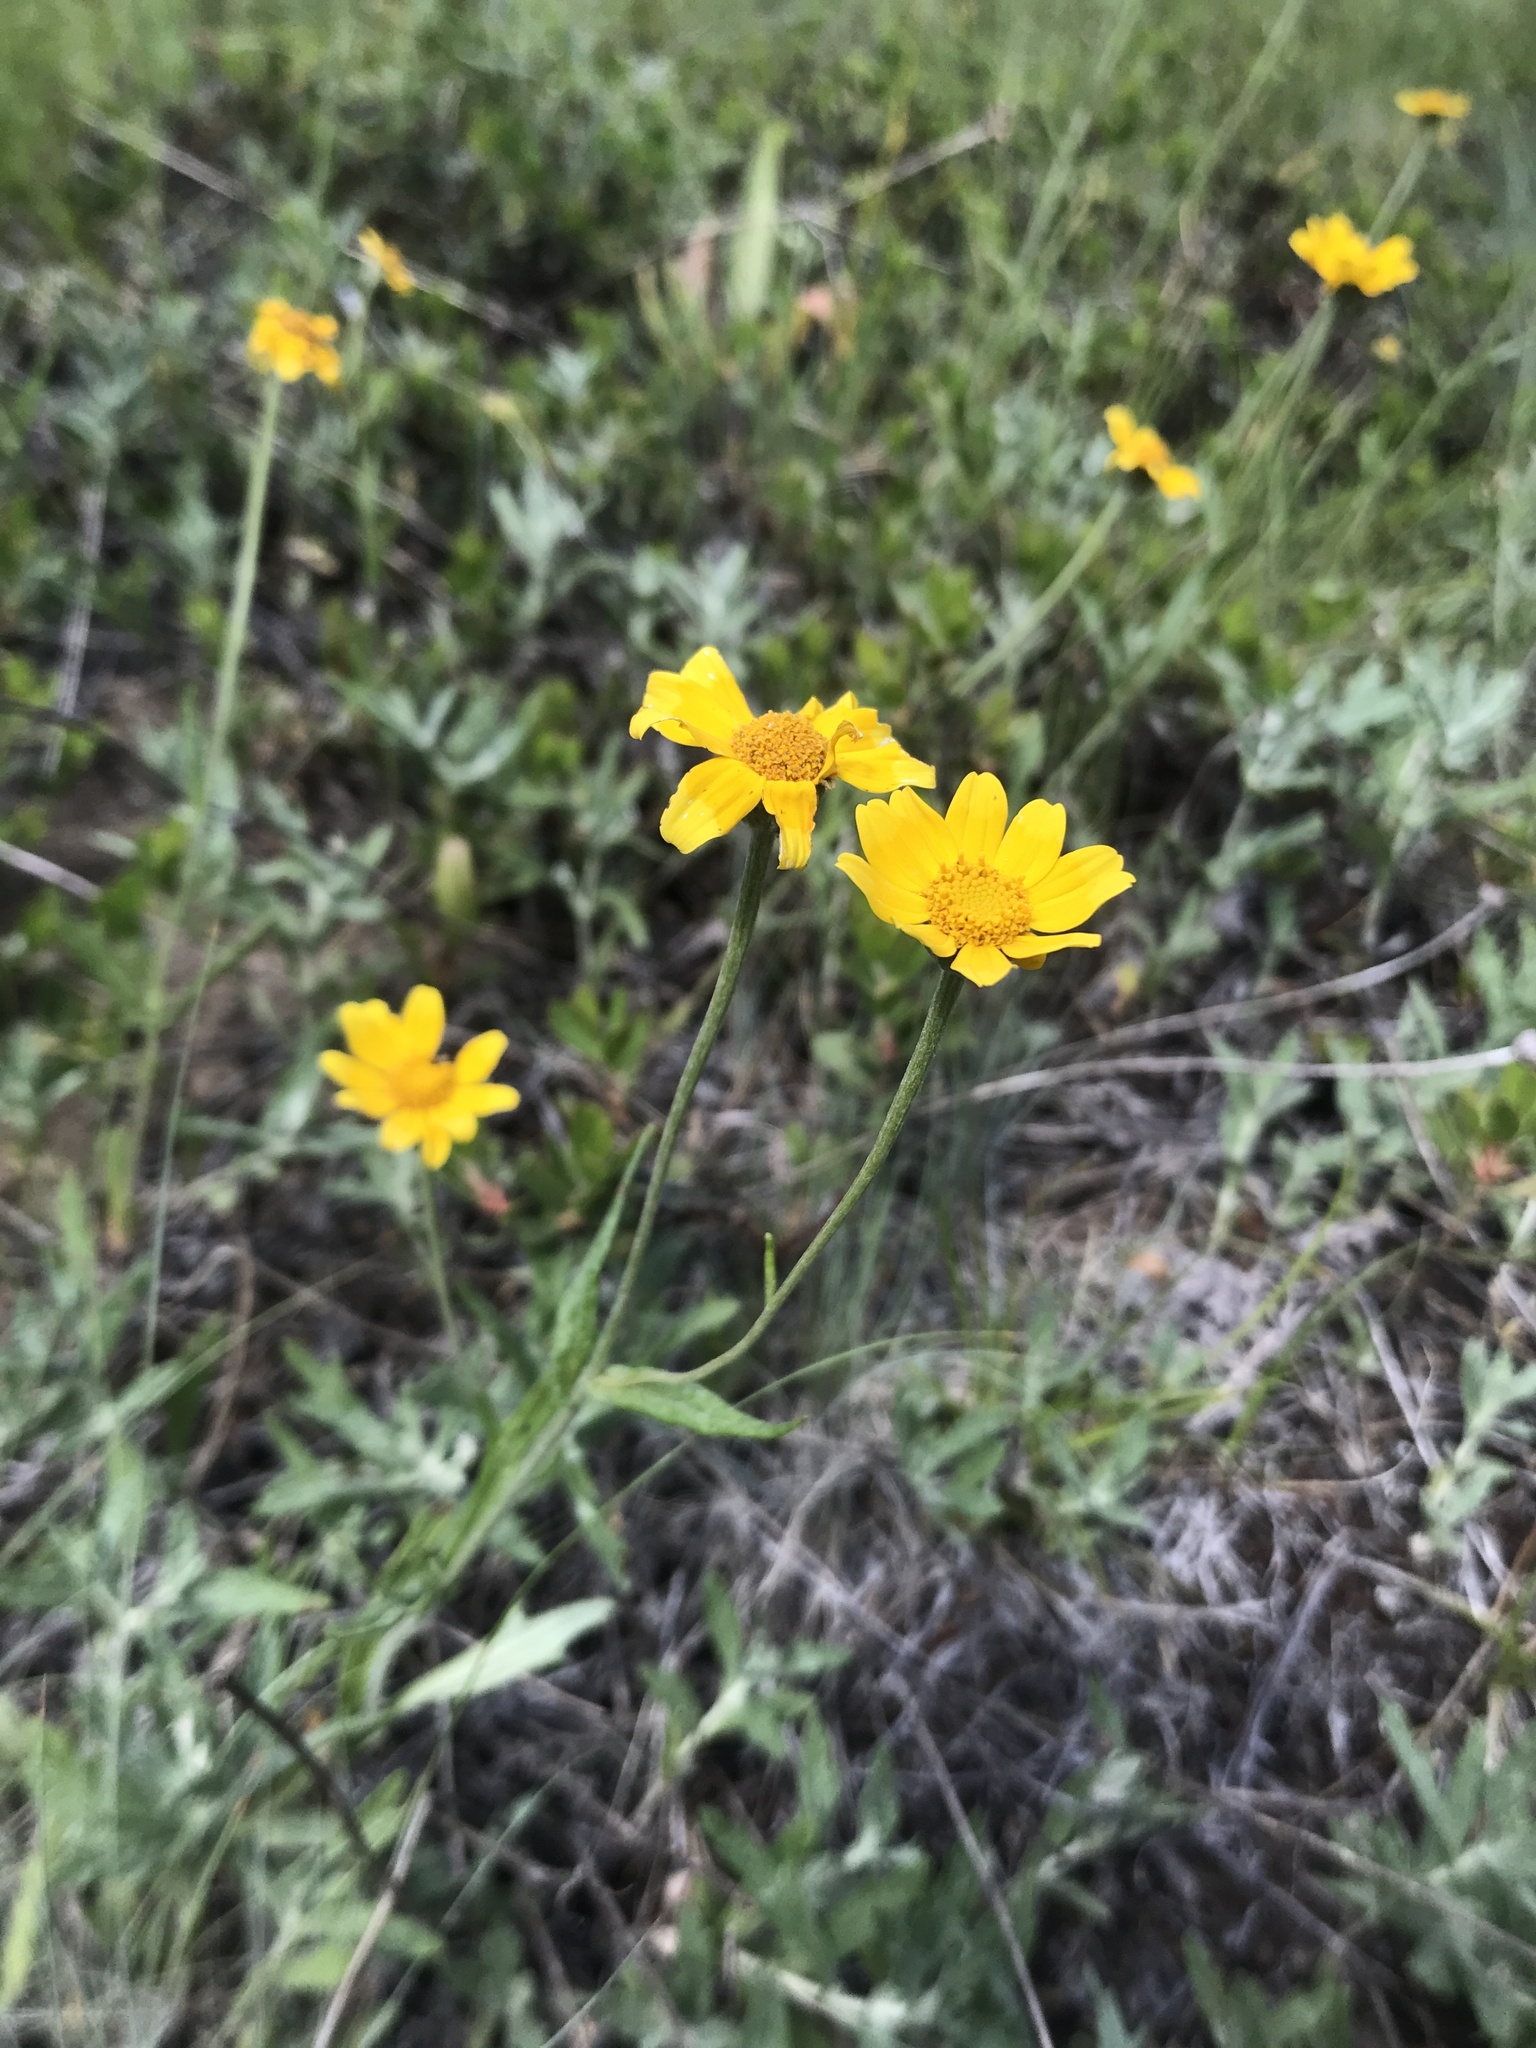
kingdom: Plantae
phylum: Tracheophyta
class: Magnoliopsida
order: Asterales
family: Asteraceae
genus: Eriophyllum
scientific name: Eriophyllum lanatum
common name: Common woolly-sunflower
